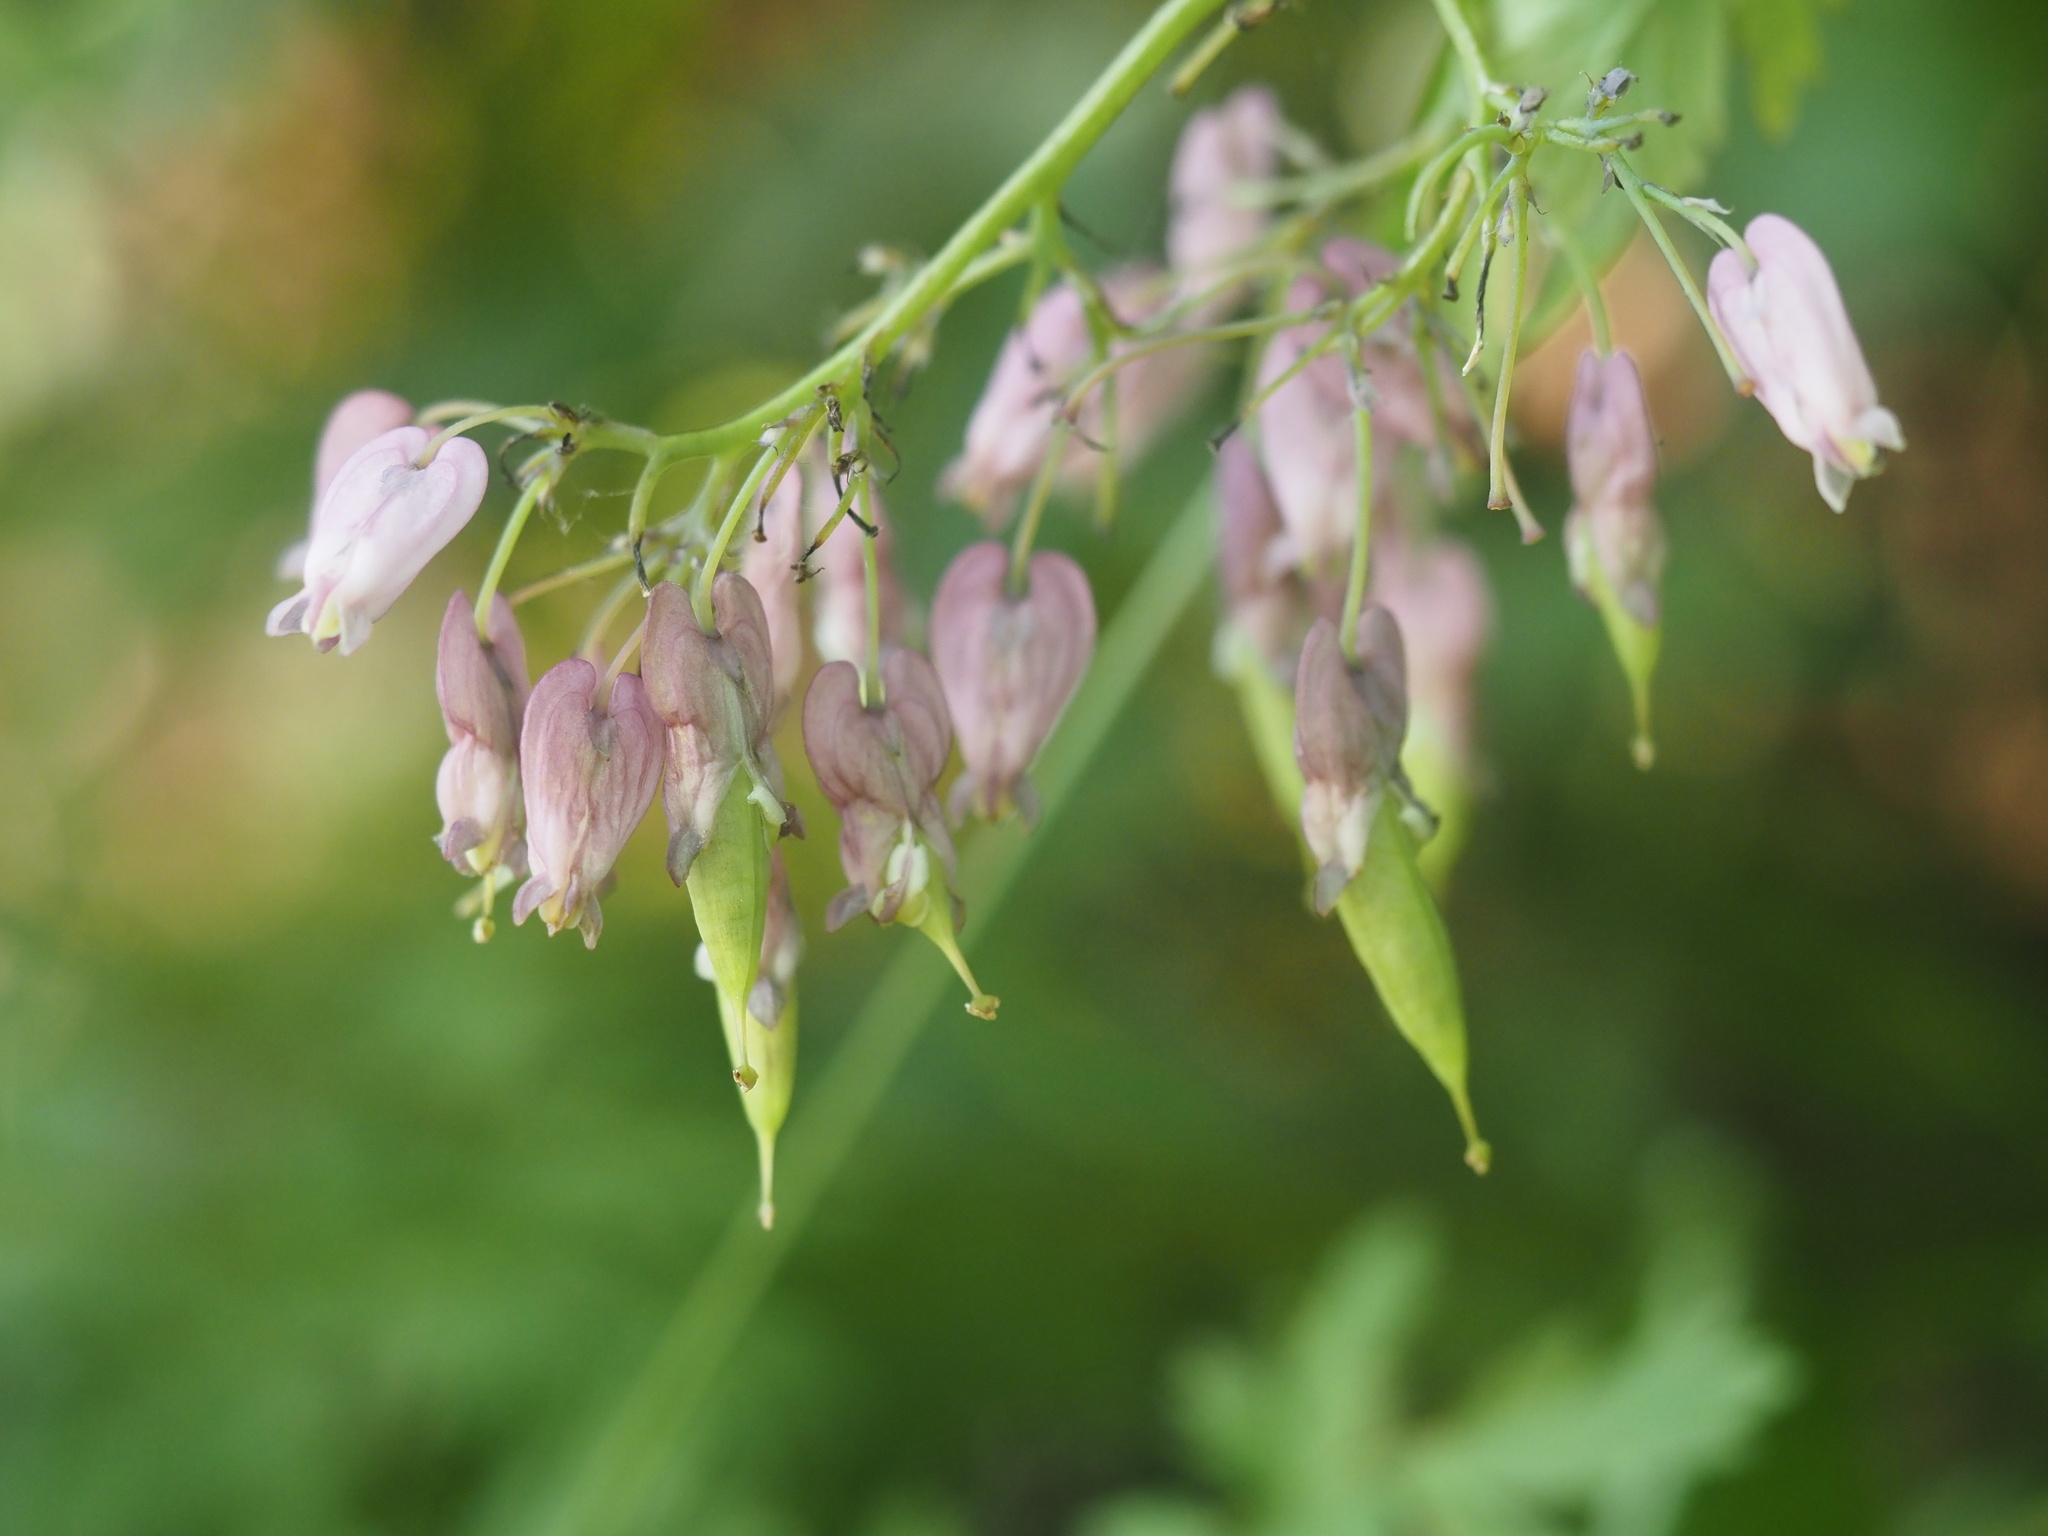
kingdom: Plantae
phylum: Tracheophyta
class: Magnoliopsida
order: Ranunculales
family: Papaveraceae
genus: Dicentra
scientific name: Dicentra formosa
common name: Bleeding-heart
